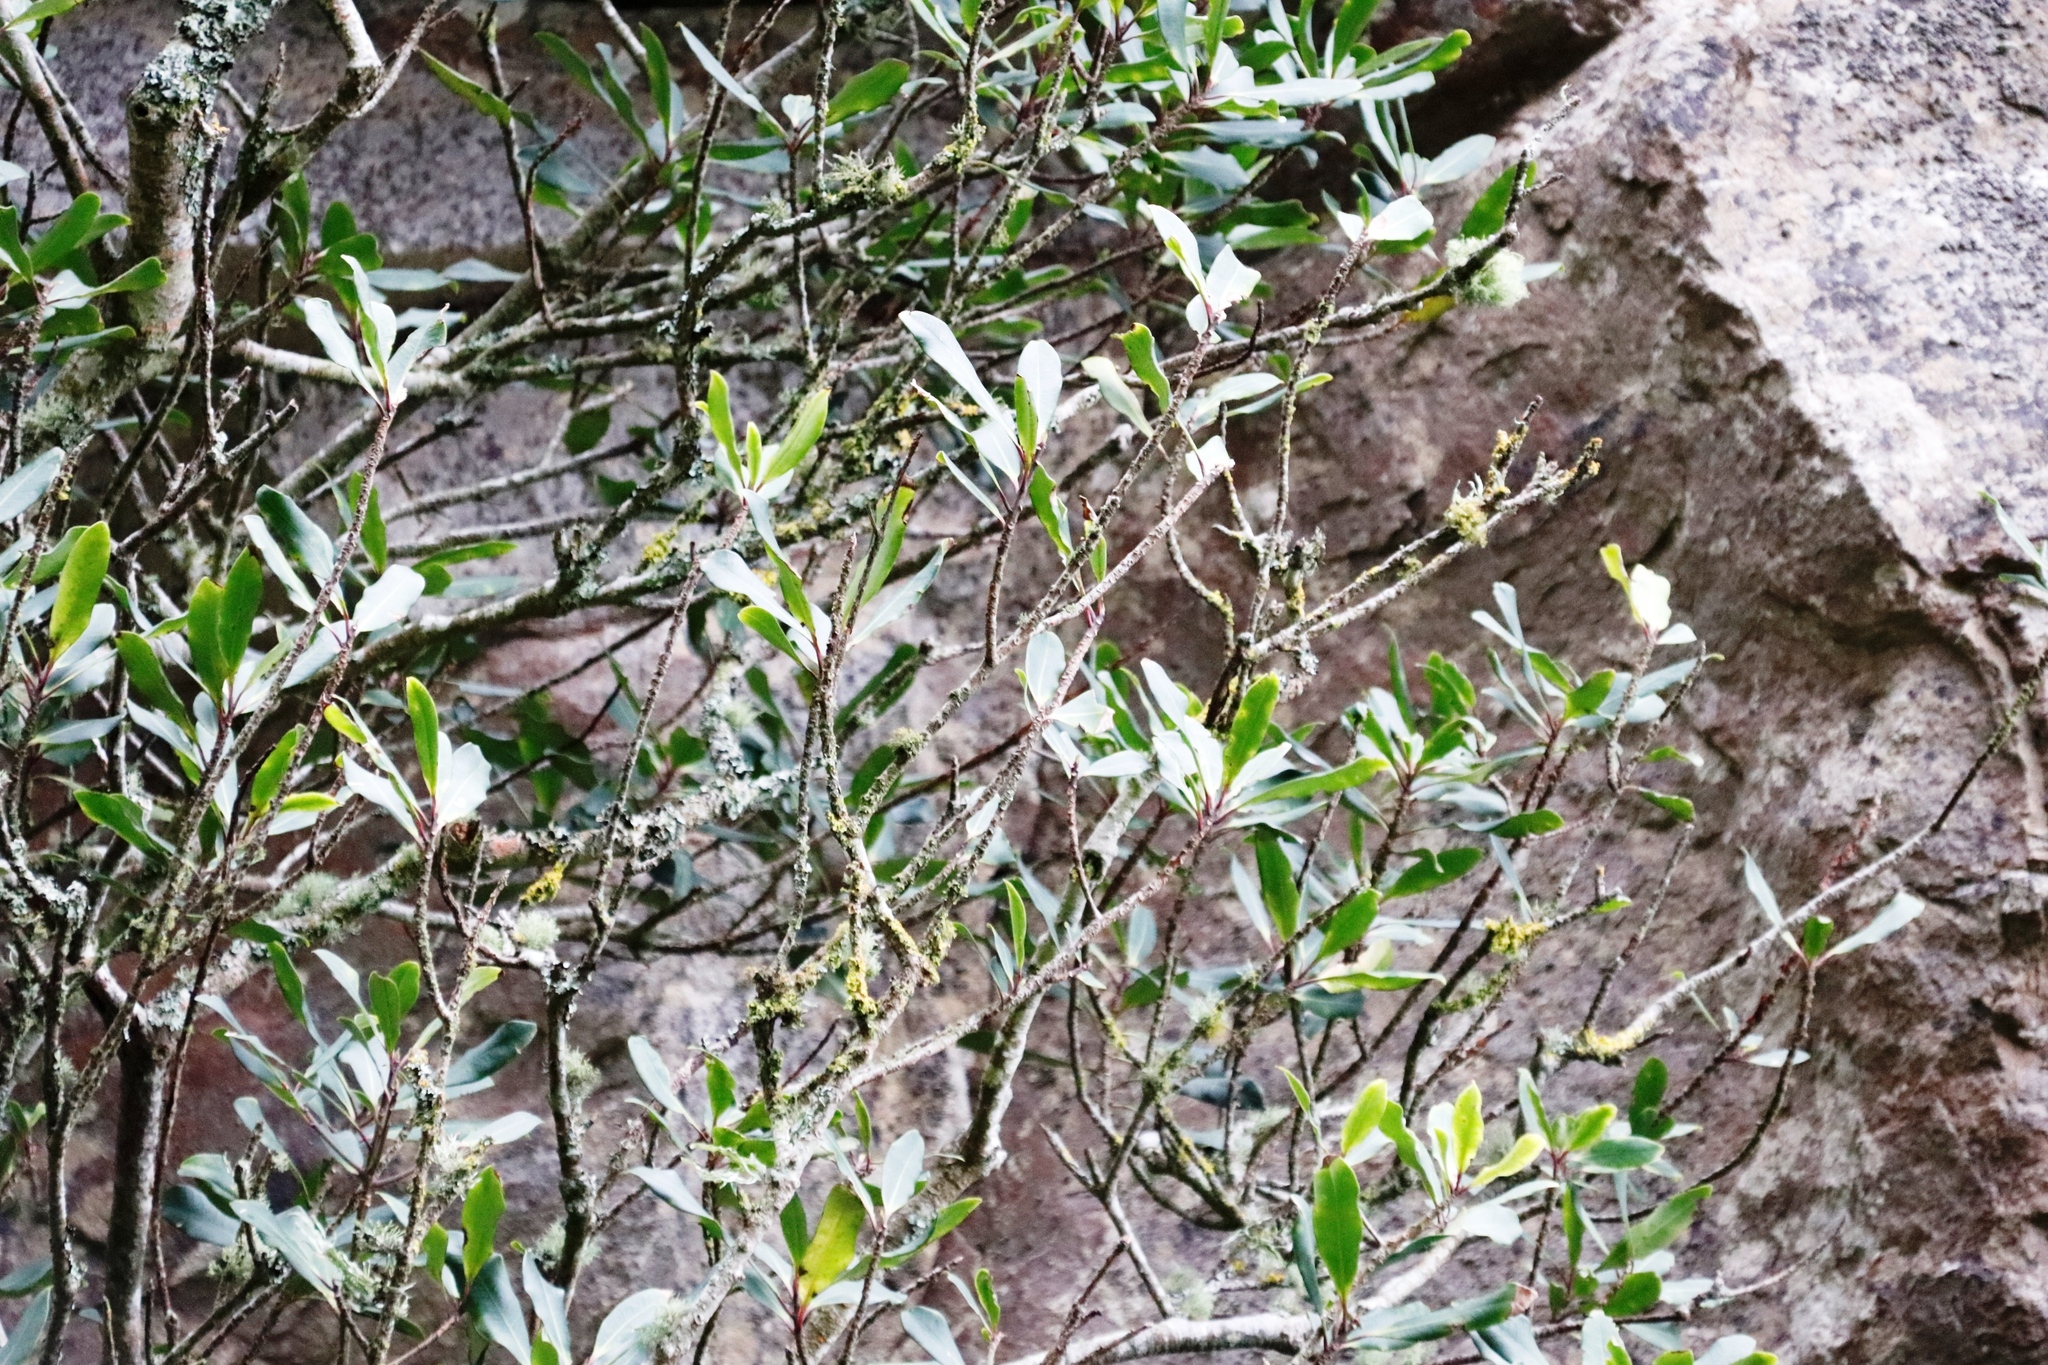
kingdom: Plantae
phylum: Tracheophyta
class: Magnoliopsida
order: Ericales
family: Primulaceae
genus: Myrsine
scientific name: Myrsine melanophloeos
